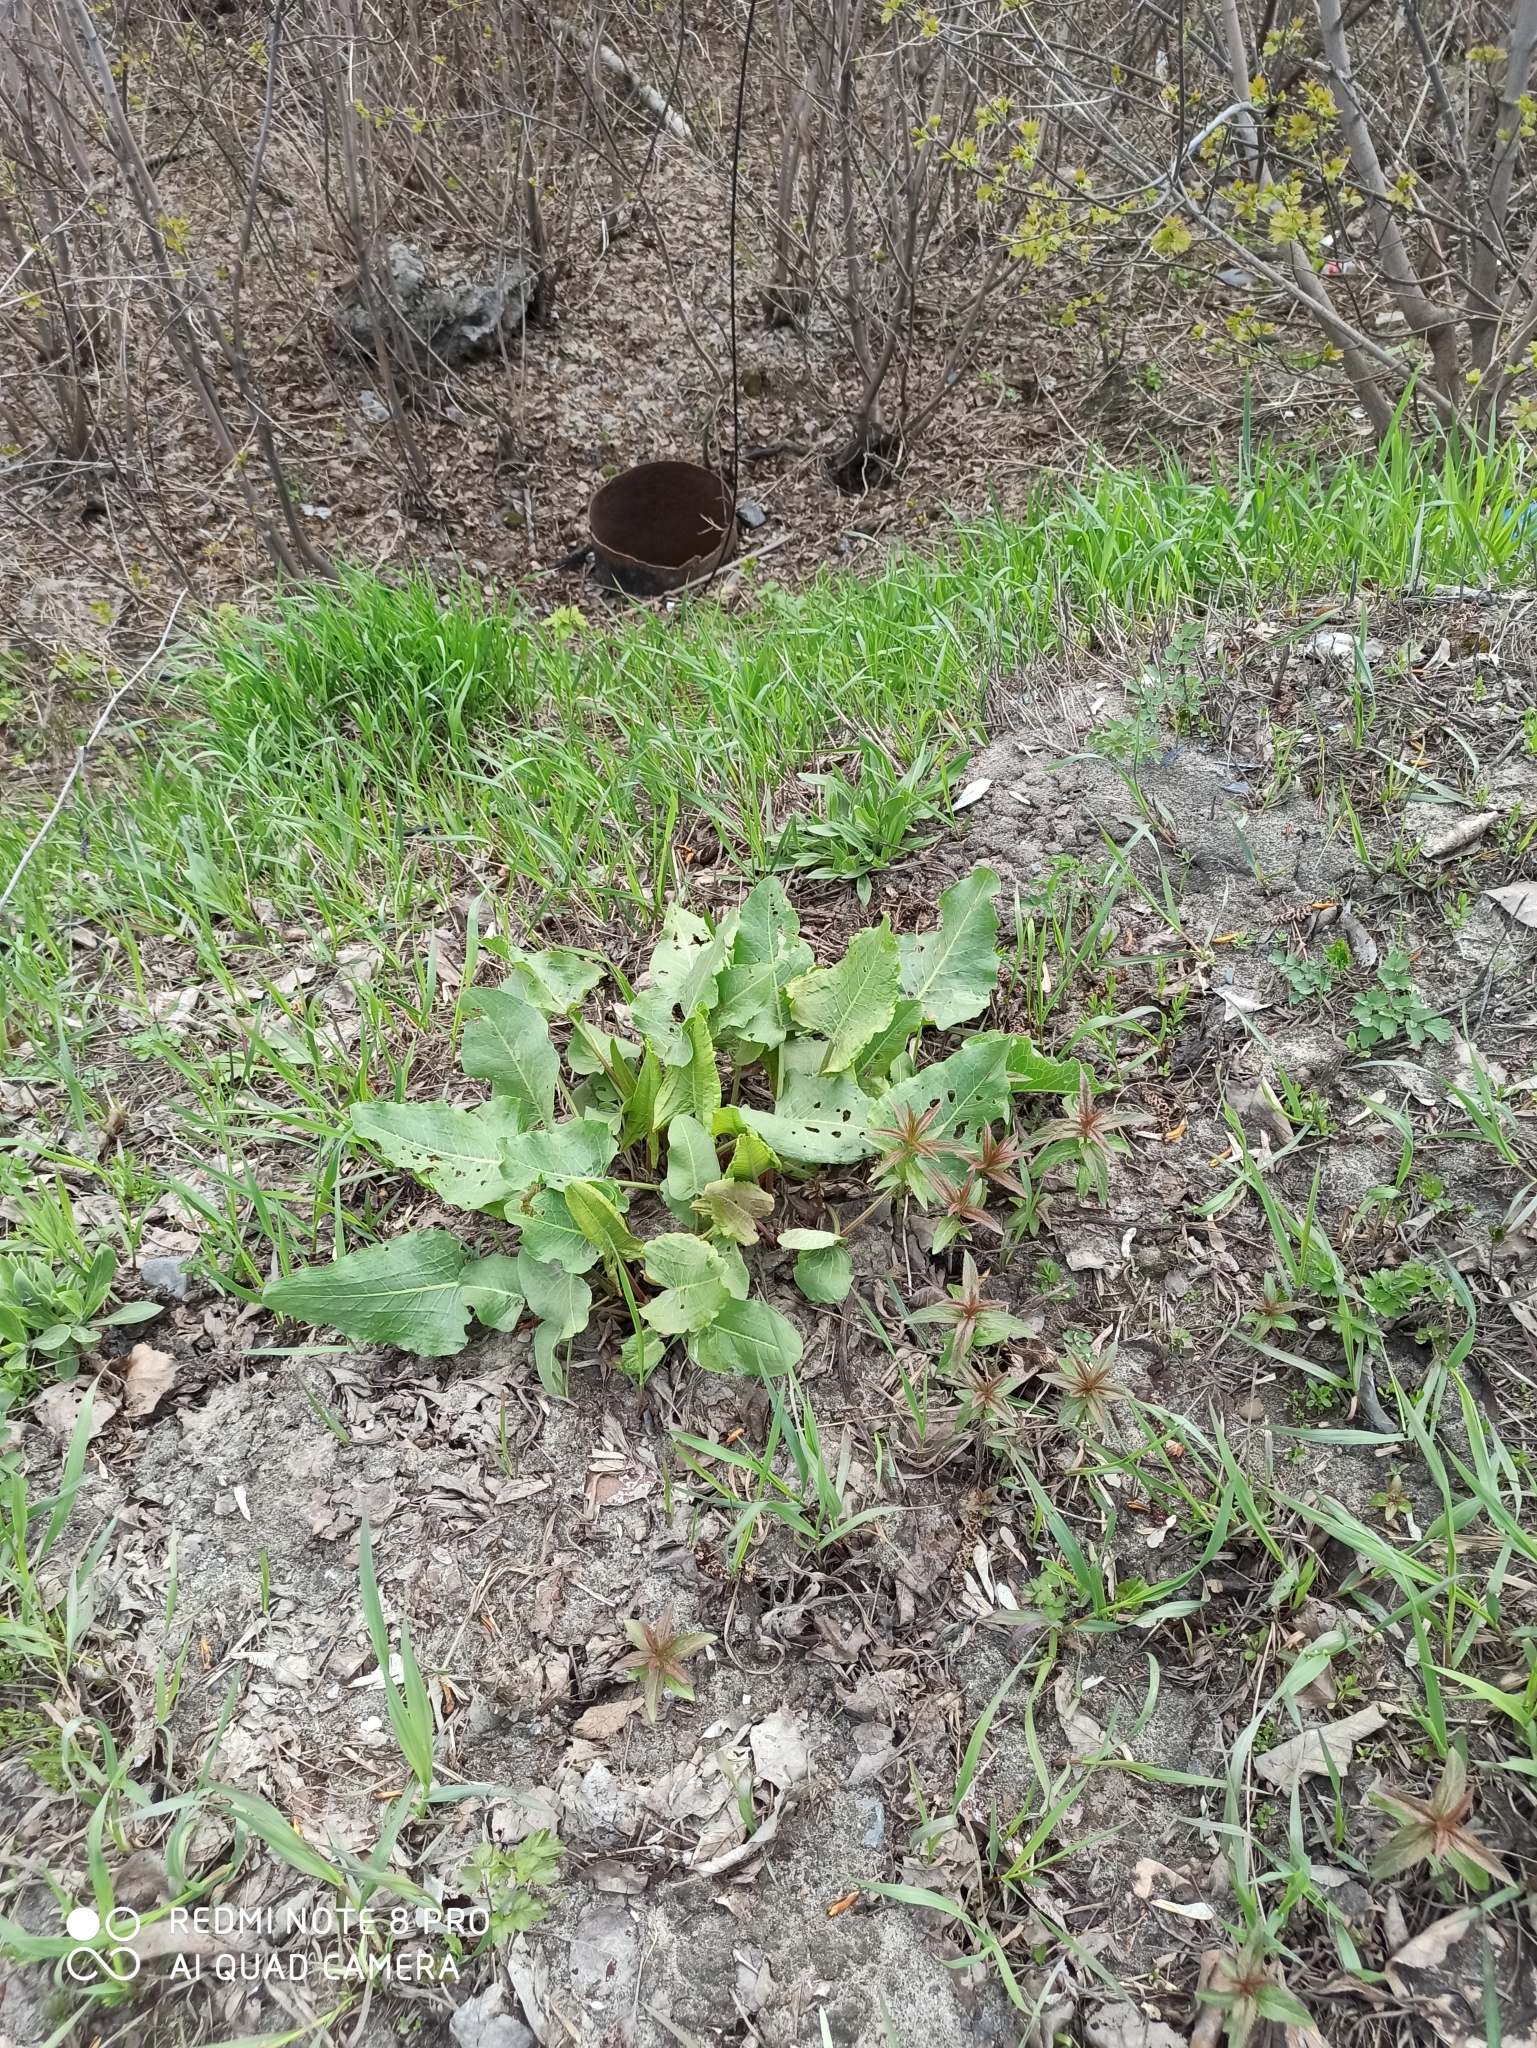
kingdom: Plantae
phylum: Tracheophyta
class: Magnoliopsida
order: Caryophyllales
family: Polygonaceae
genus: Rumex
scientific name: Rumex confertus
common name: Russian dock
